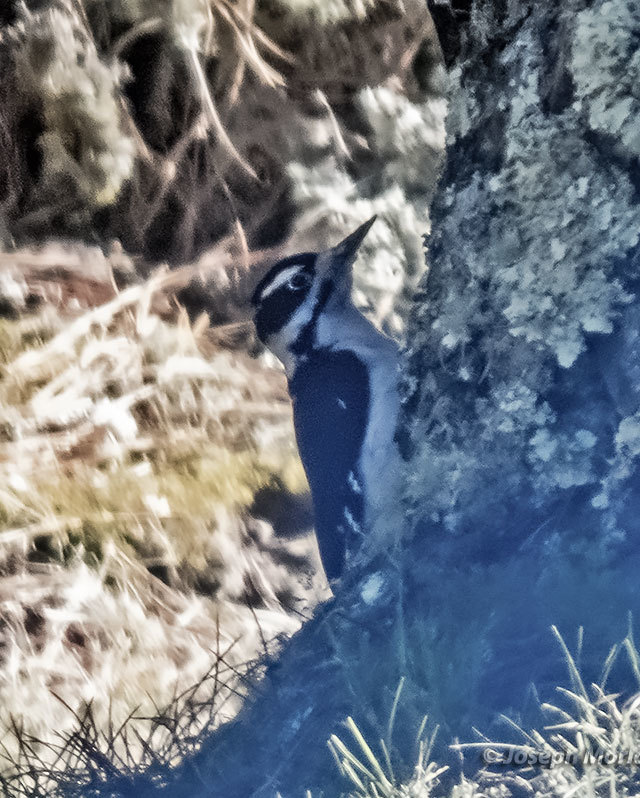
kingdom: Animalia
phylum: Chordata
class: Aves
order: Piciformes
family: Picidae
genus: Leuconotopicus
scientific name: Leuconotopicus villosus
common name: Hairy woodpecker
